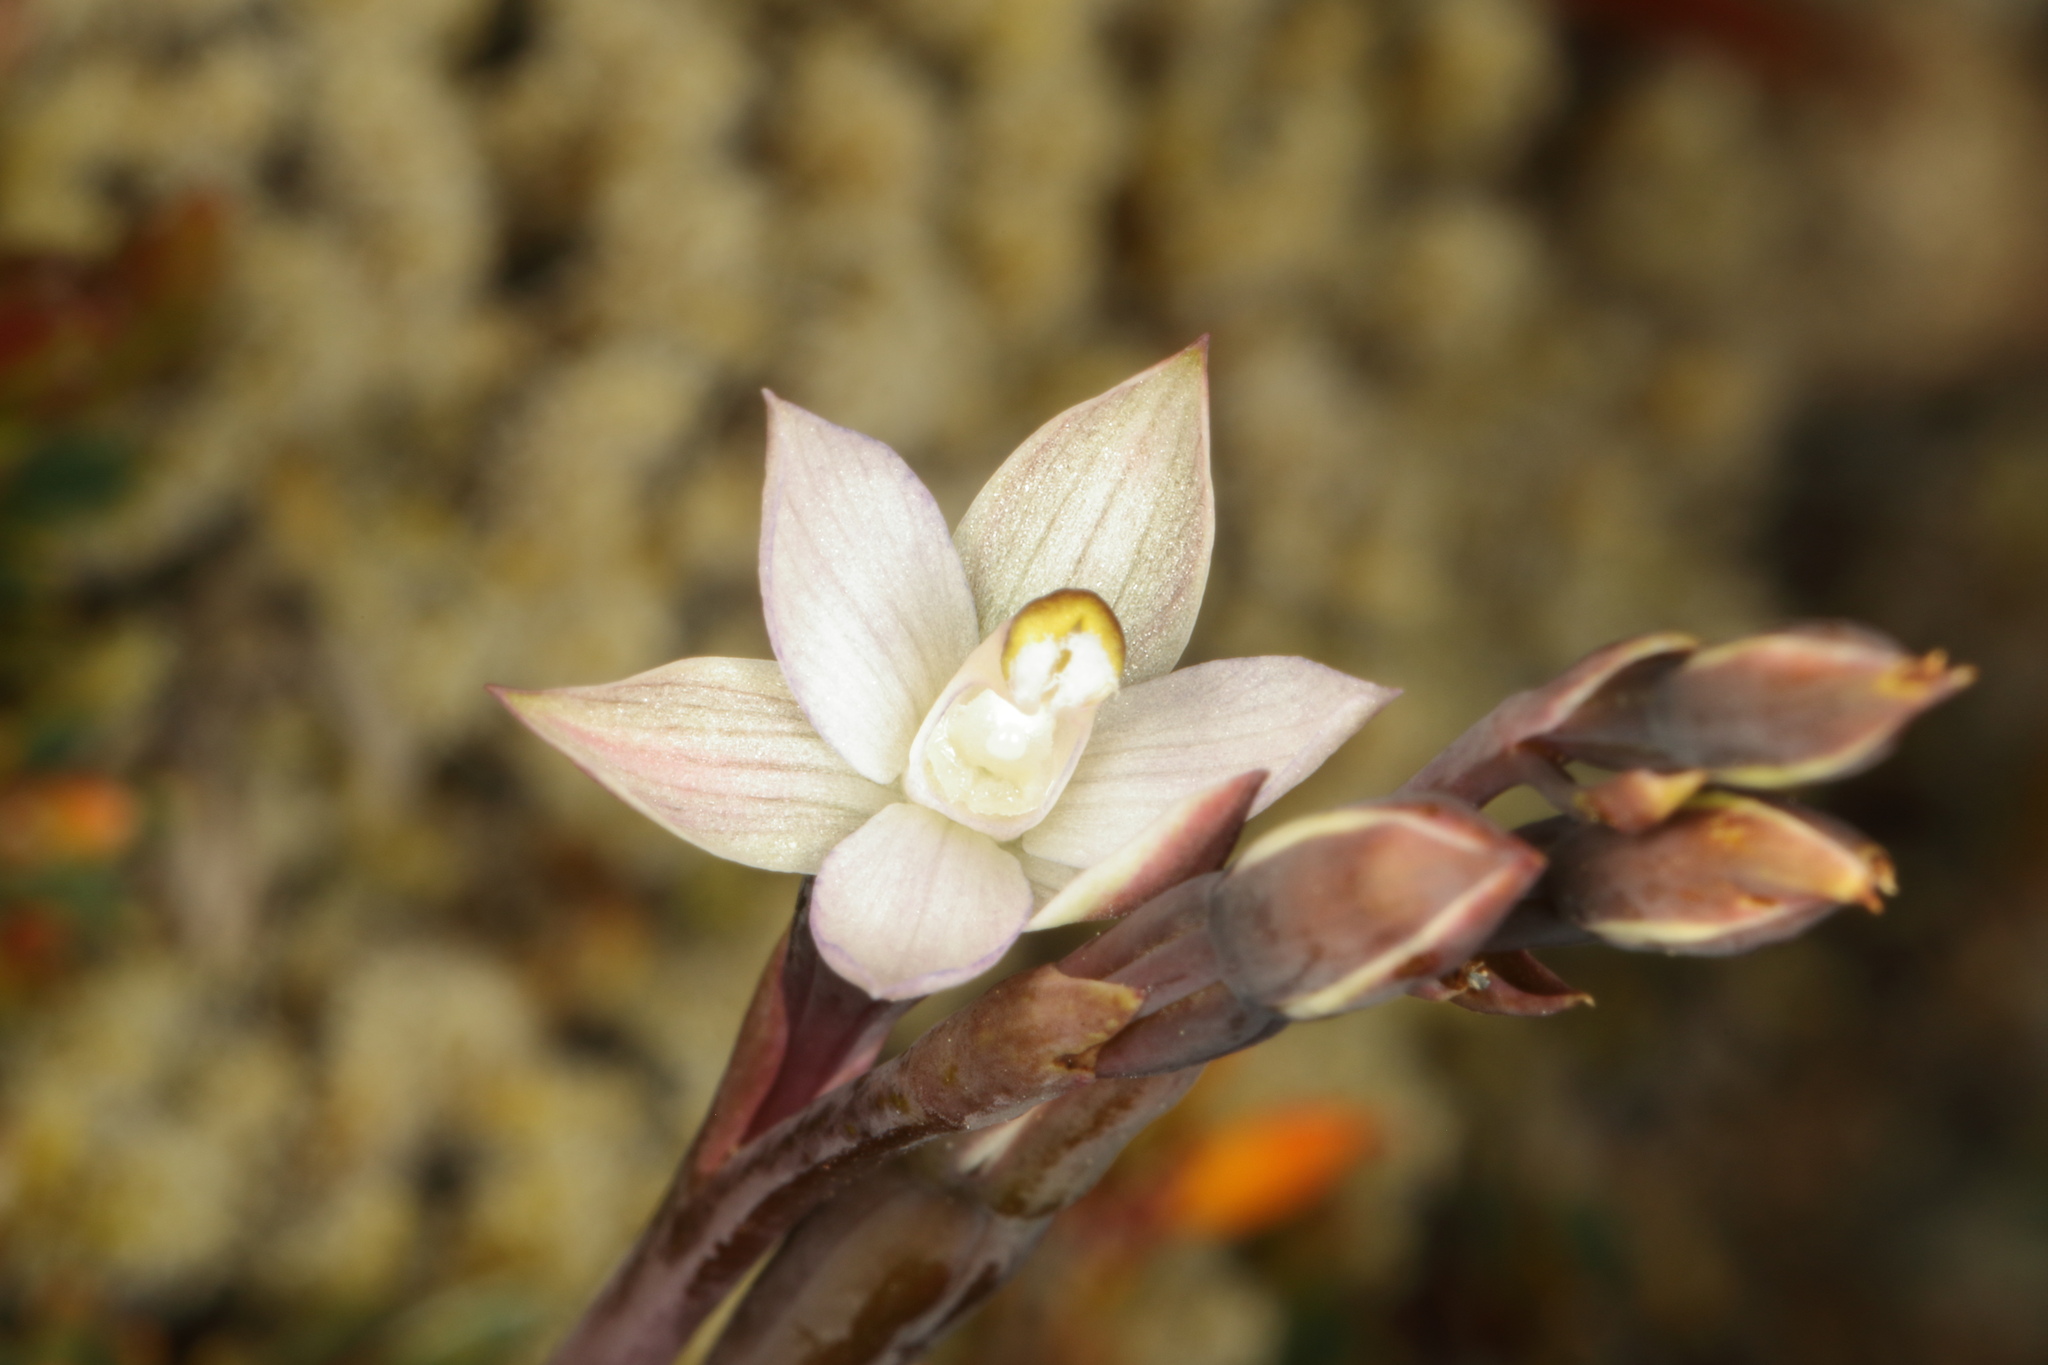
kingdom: Plantae
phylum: Tracheophyta
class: Liliopsida
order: Asparagales
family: Orchidaceae
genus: Thelymitra
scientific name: Thelymitra longifolia
